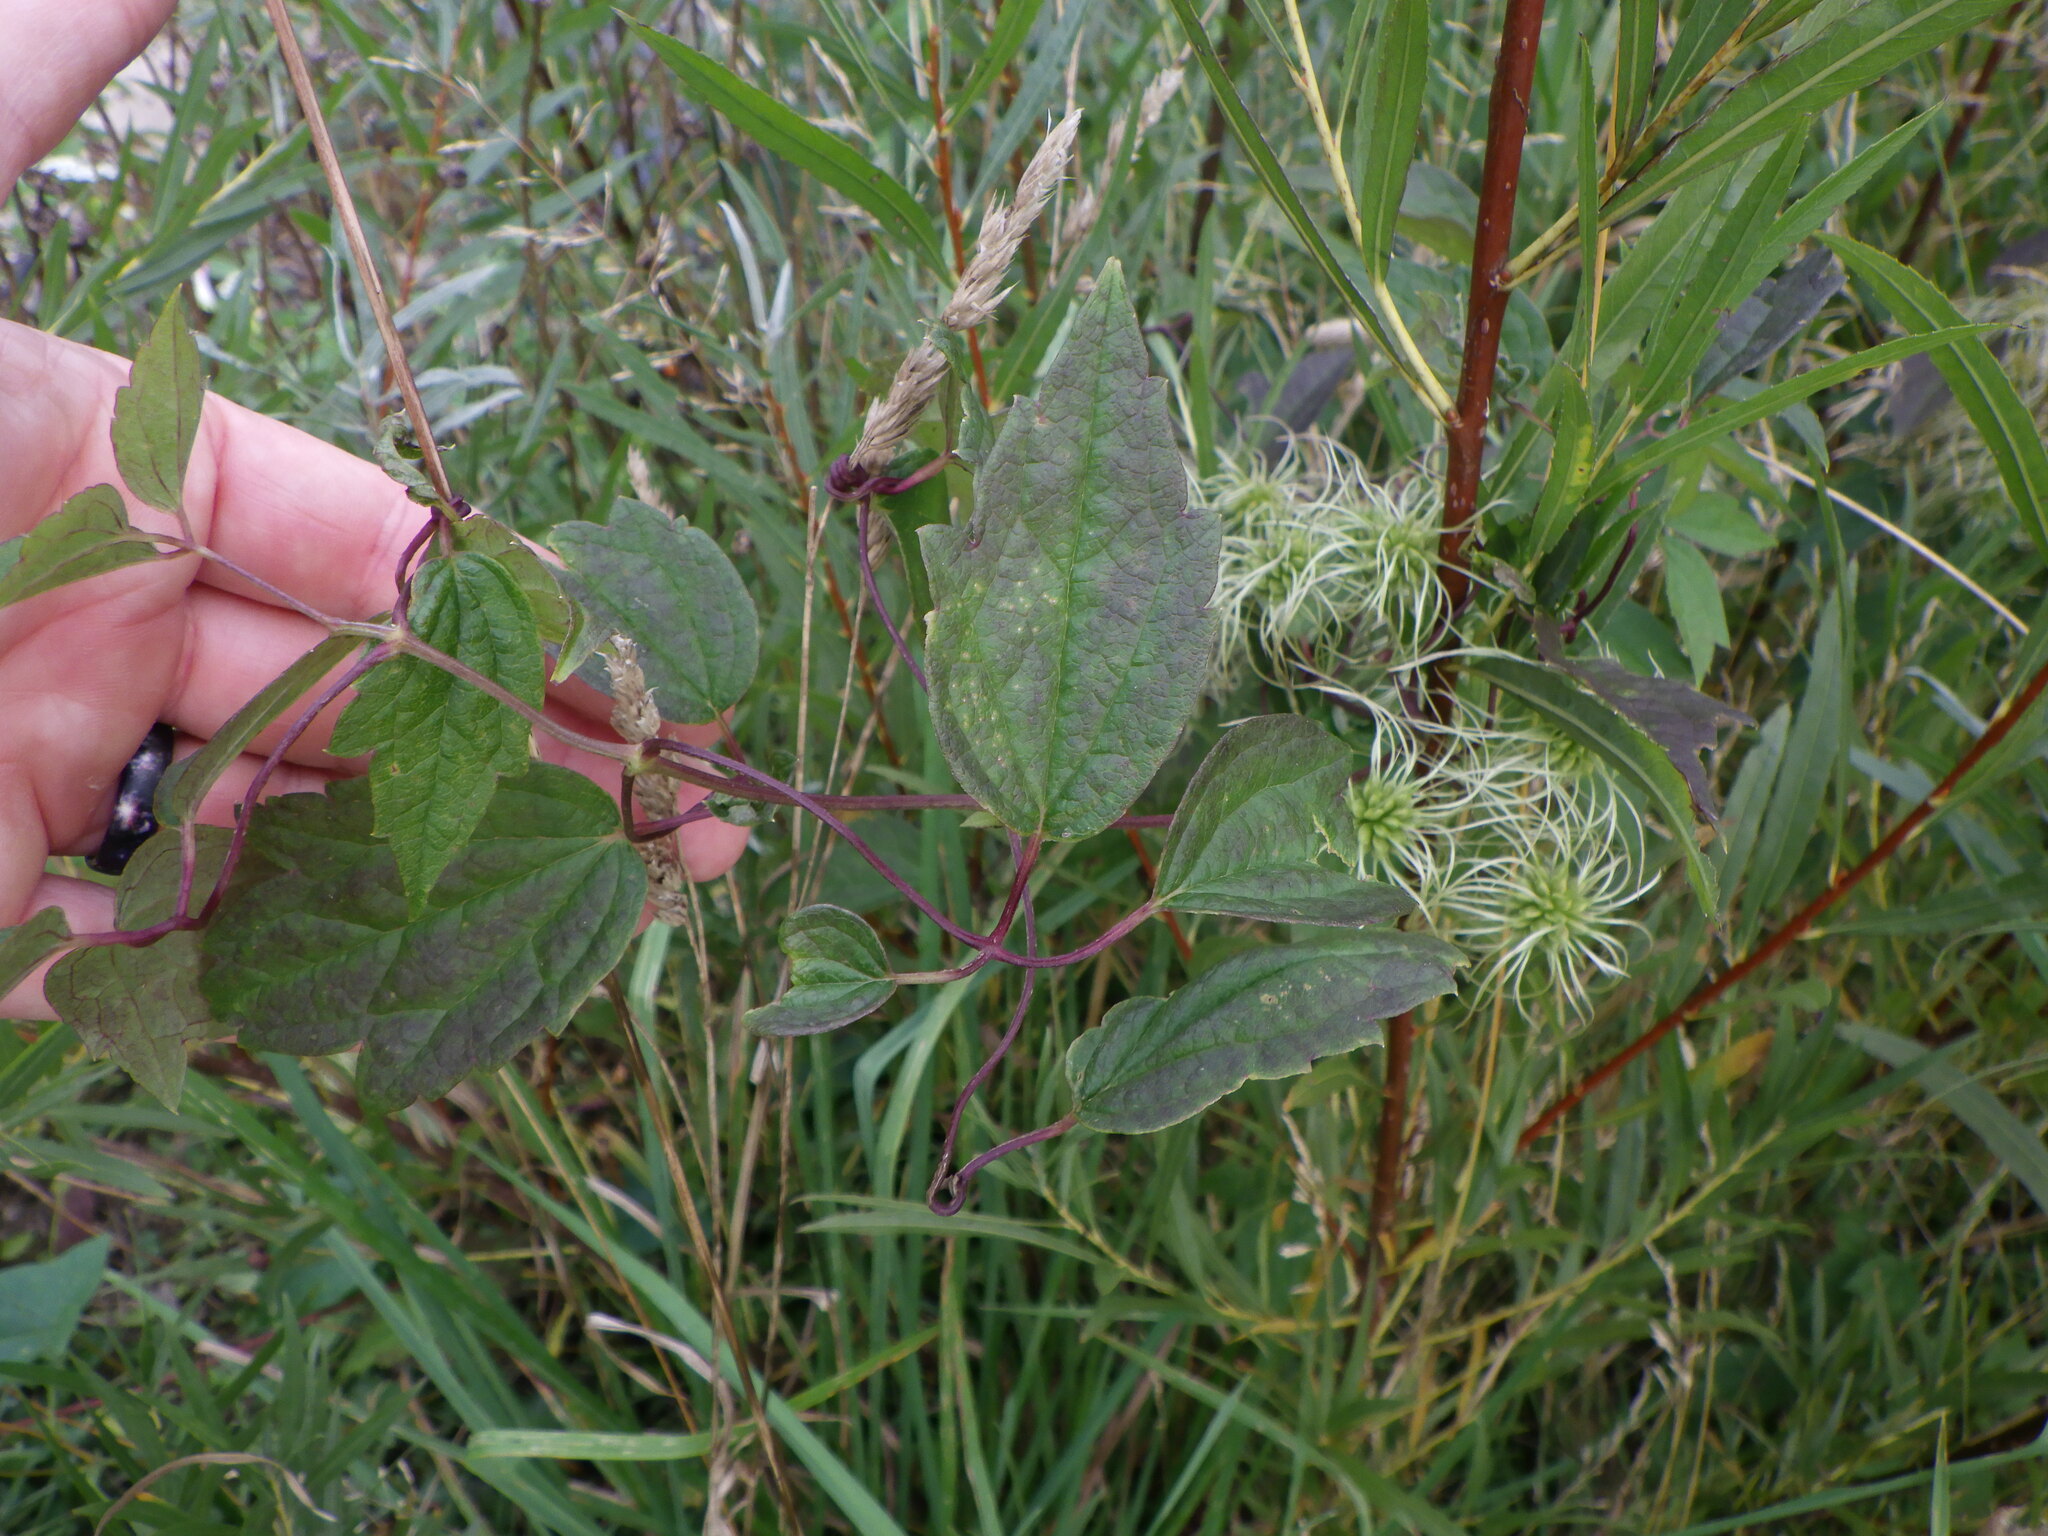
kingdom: Plantae
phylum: Tracheophyta
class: Magnoliopsida
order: Ranunculales
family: Ranunculaceae
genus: Clematis
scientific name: Clematis virginiana
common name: Virgin's-bower
